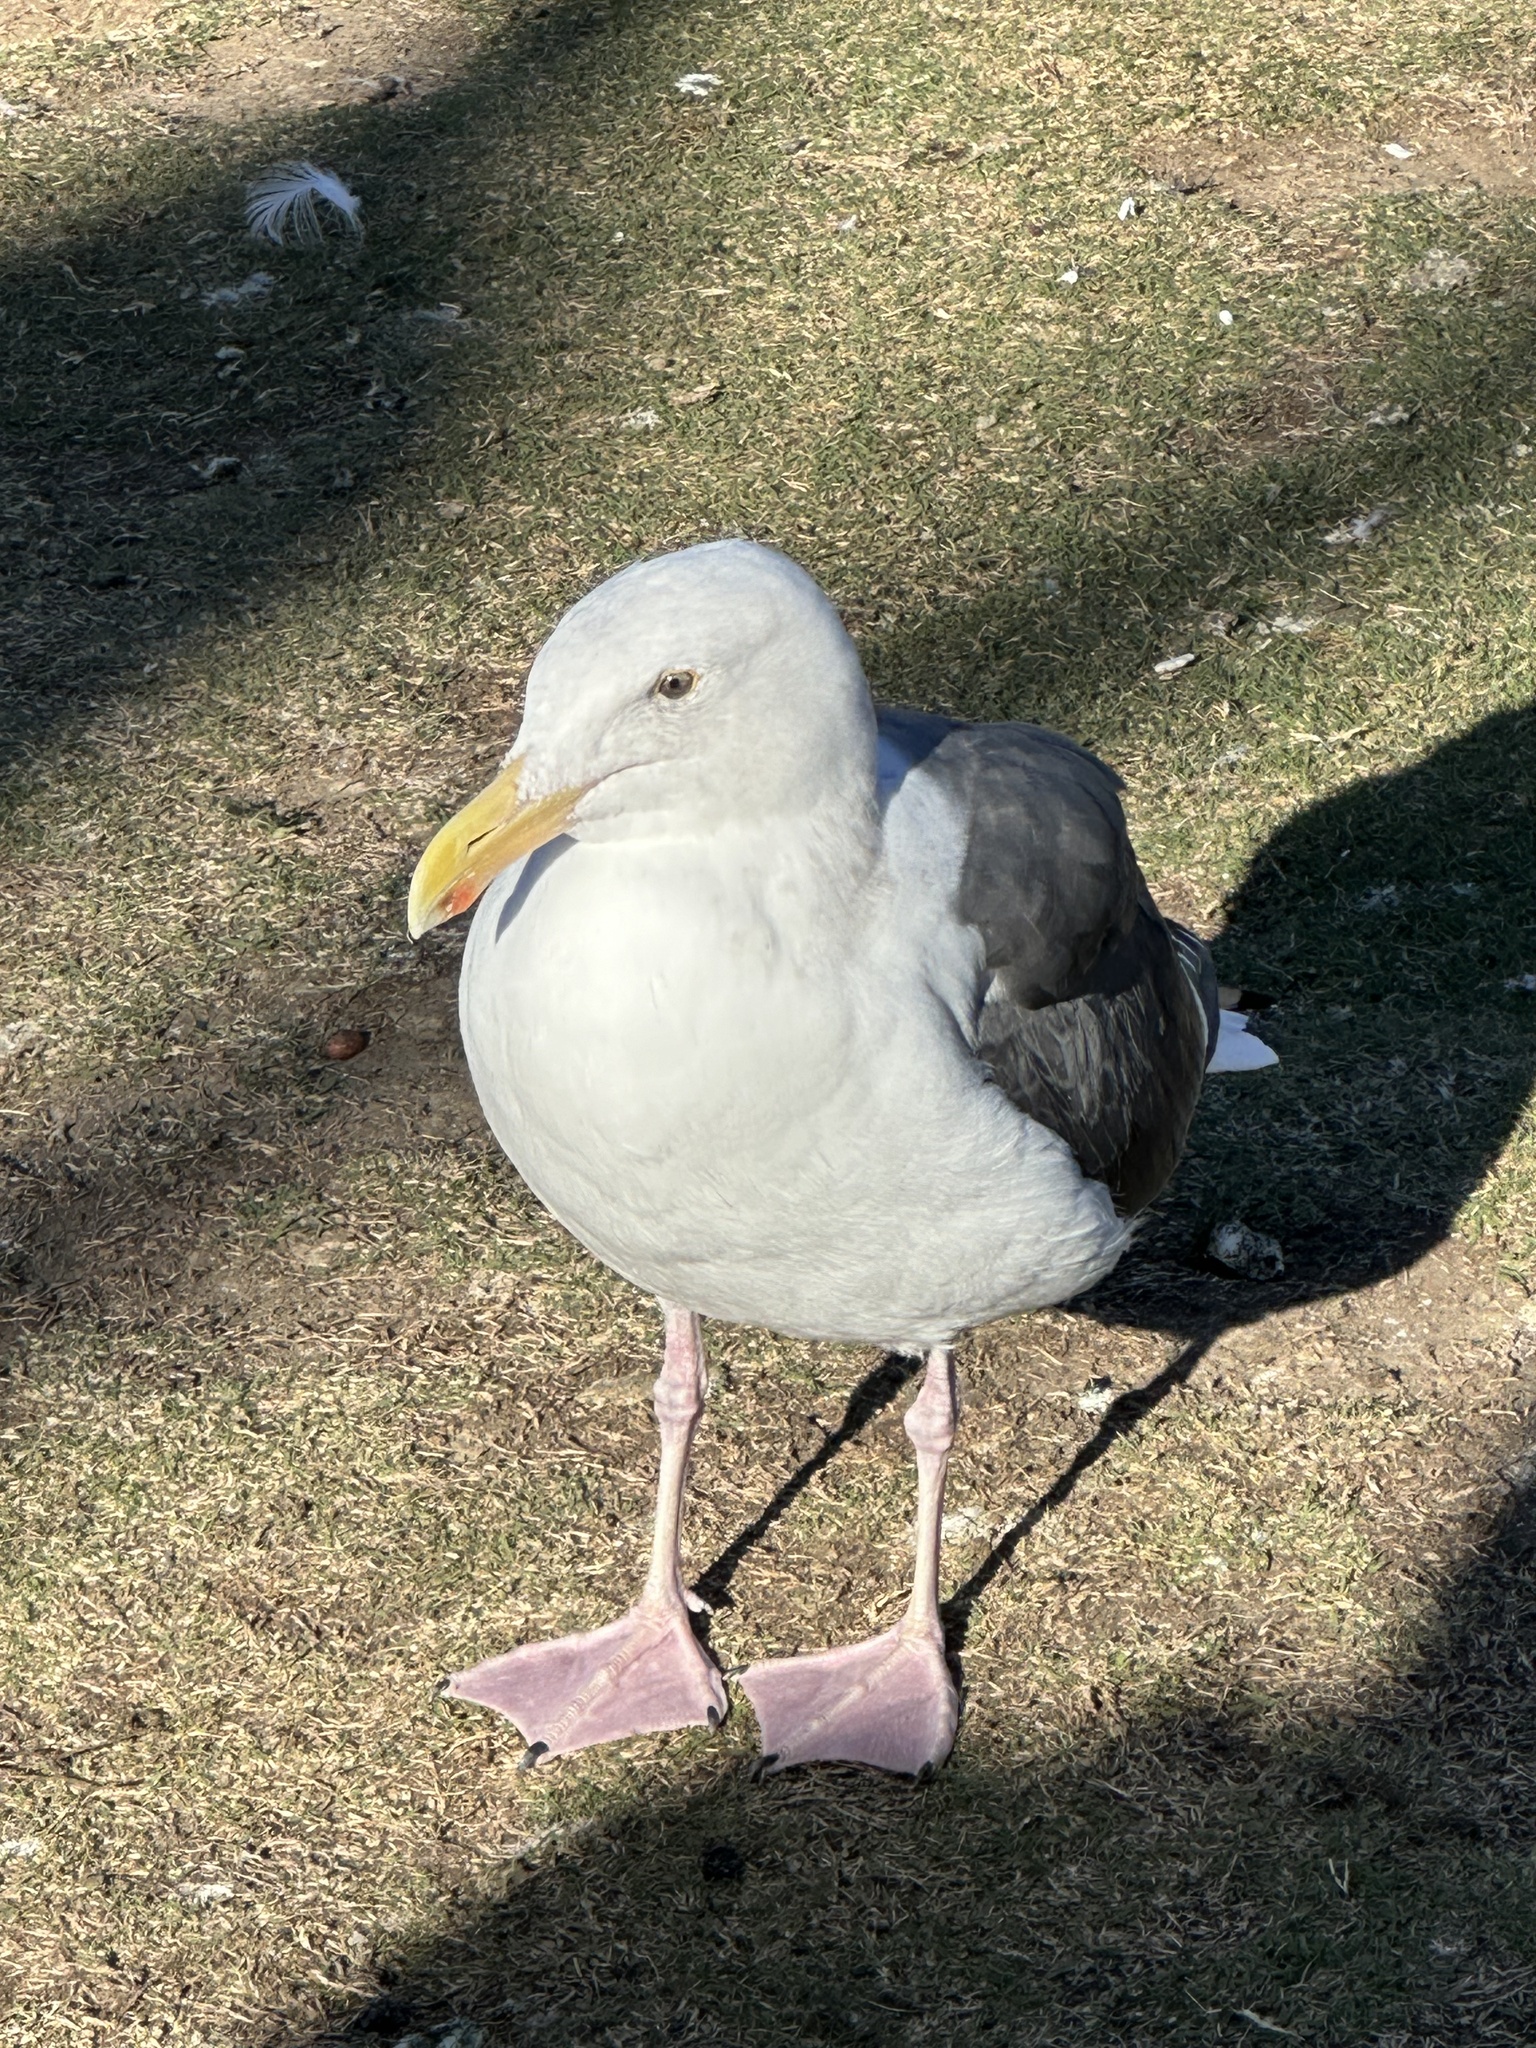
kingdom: Animalia
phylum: Chordata
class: Aves
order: Charadriiformes
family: Laridae
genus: Larus
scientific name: Larus occidentalis
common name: Western gull
